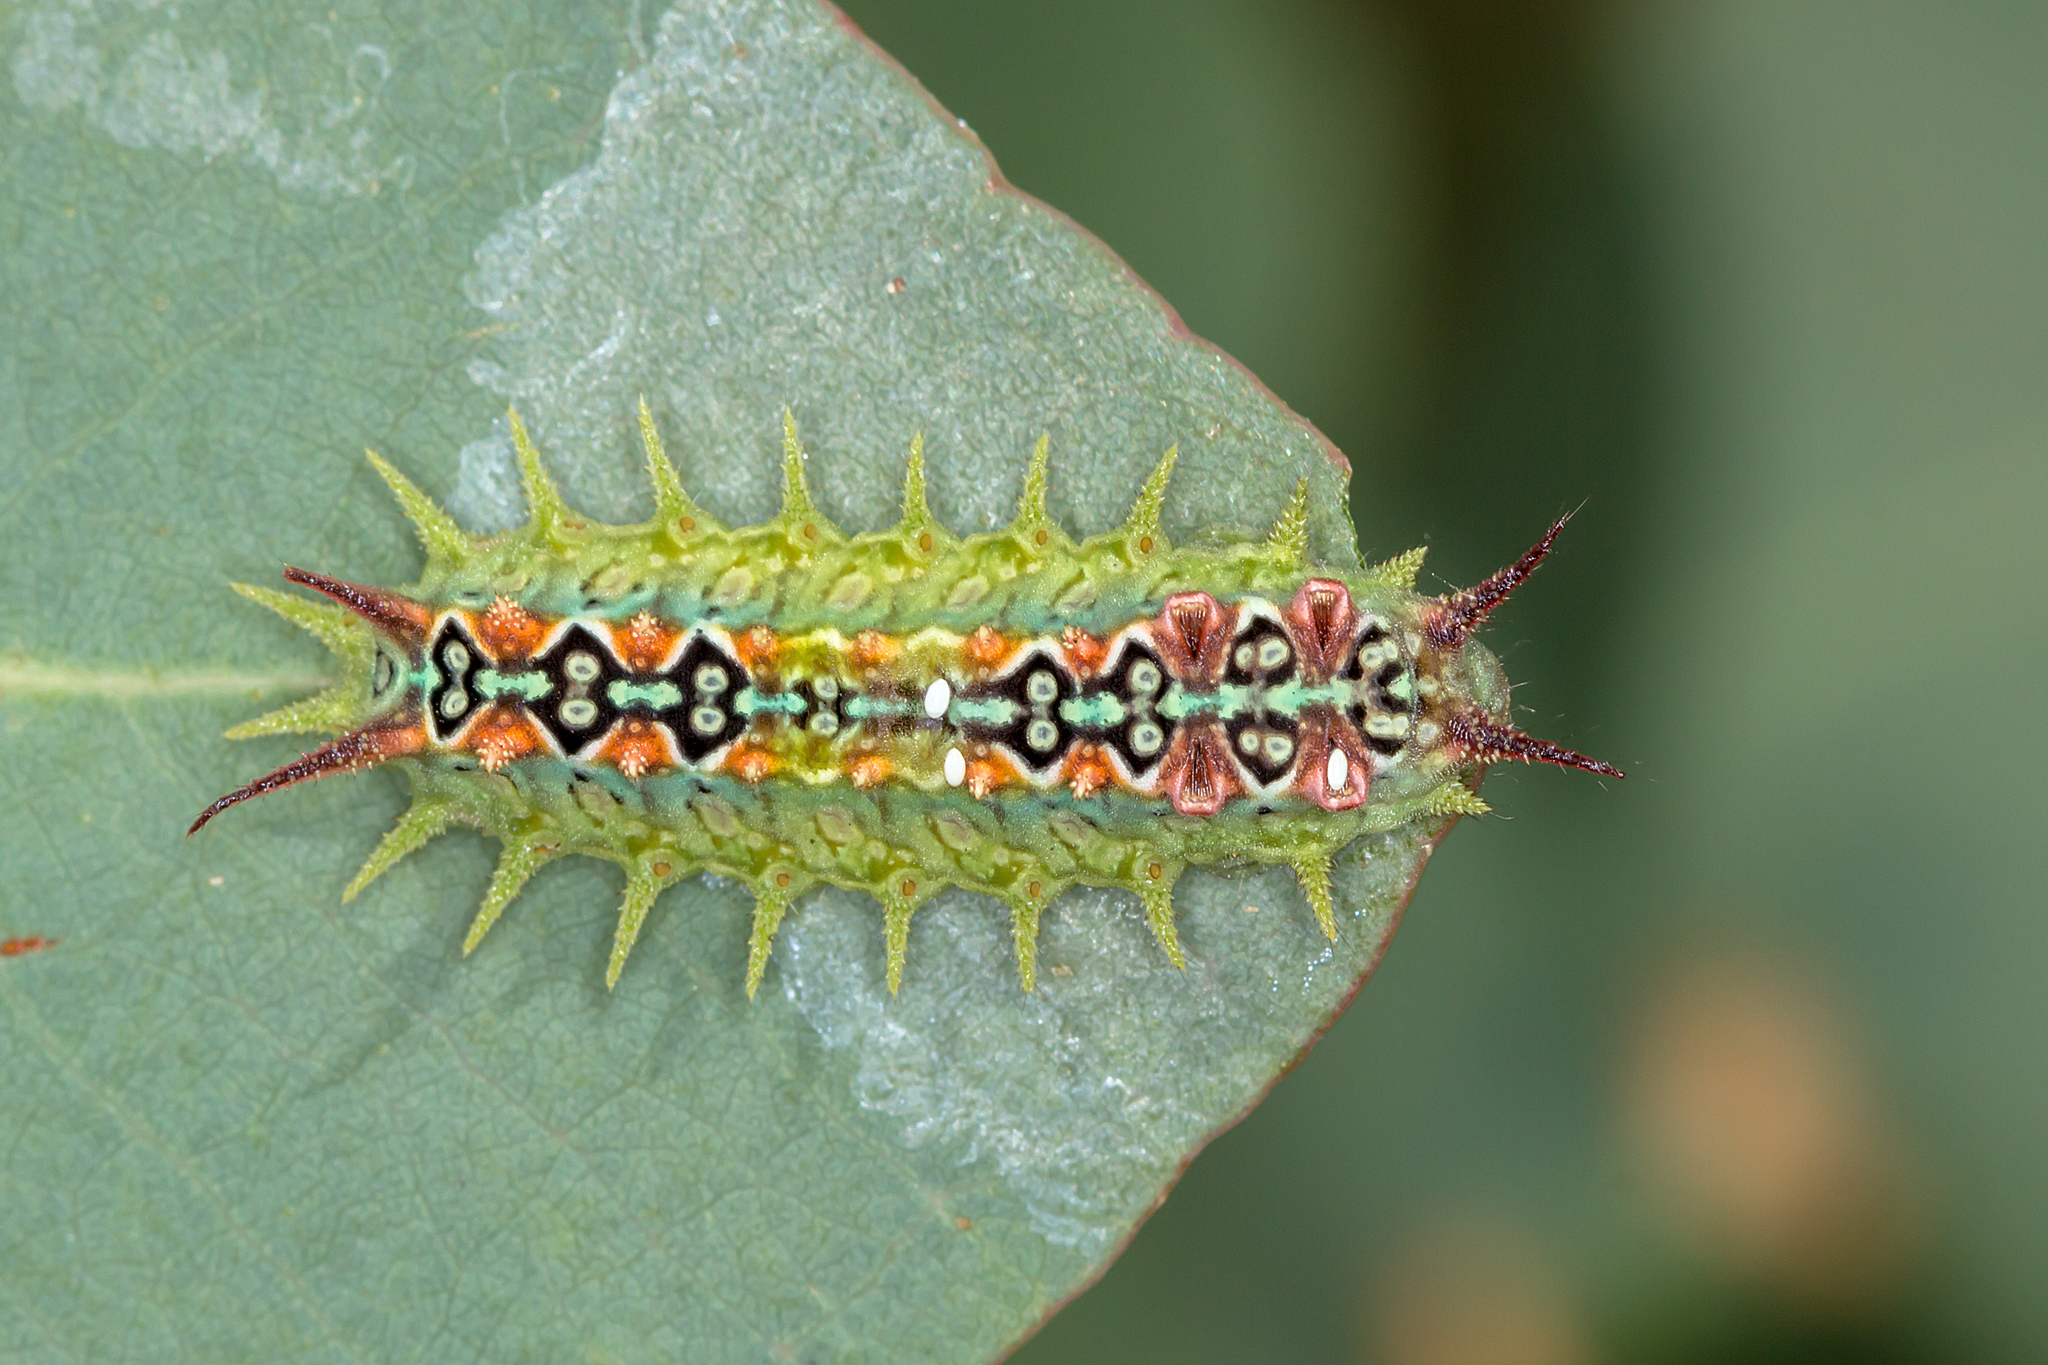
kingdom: Animalia
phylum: Arthropoda
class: Insecta
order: Lepidoptera
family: Limacodidae
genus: Doratifera
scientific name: Doratifera quadriguttata
